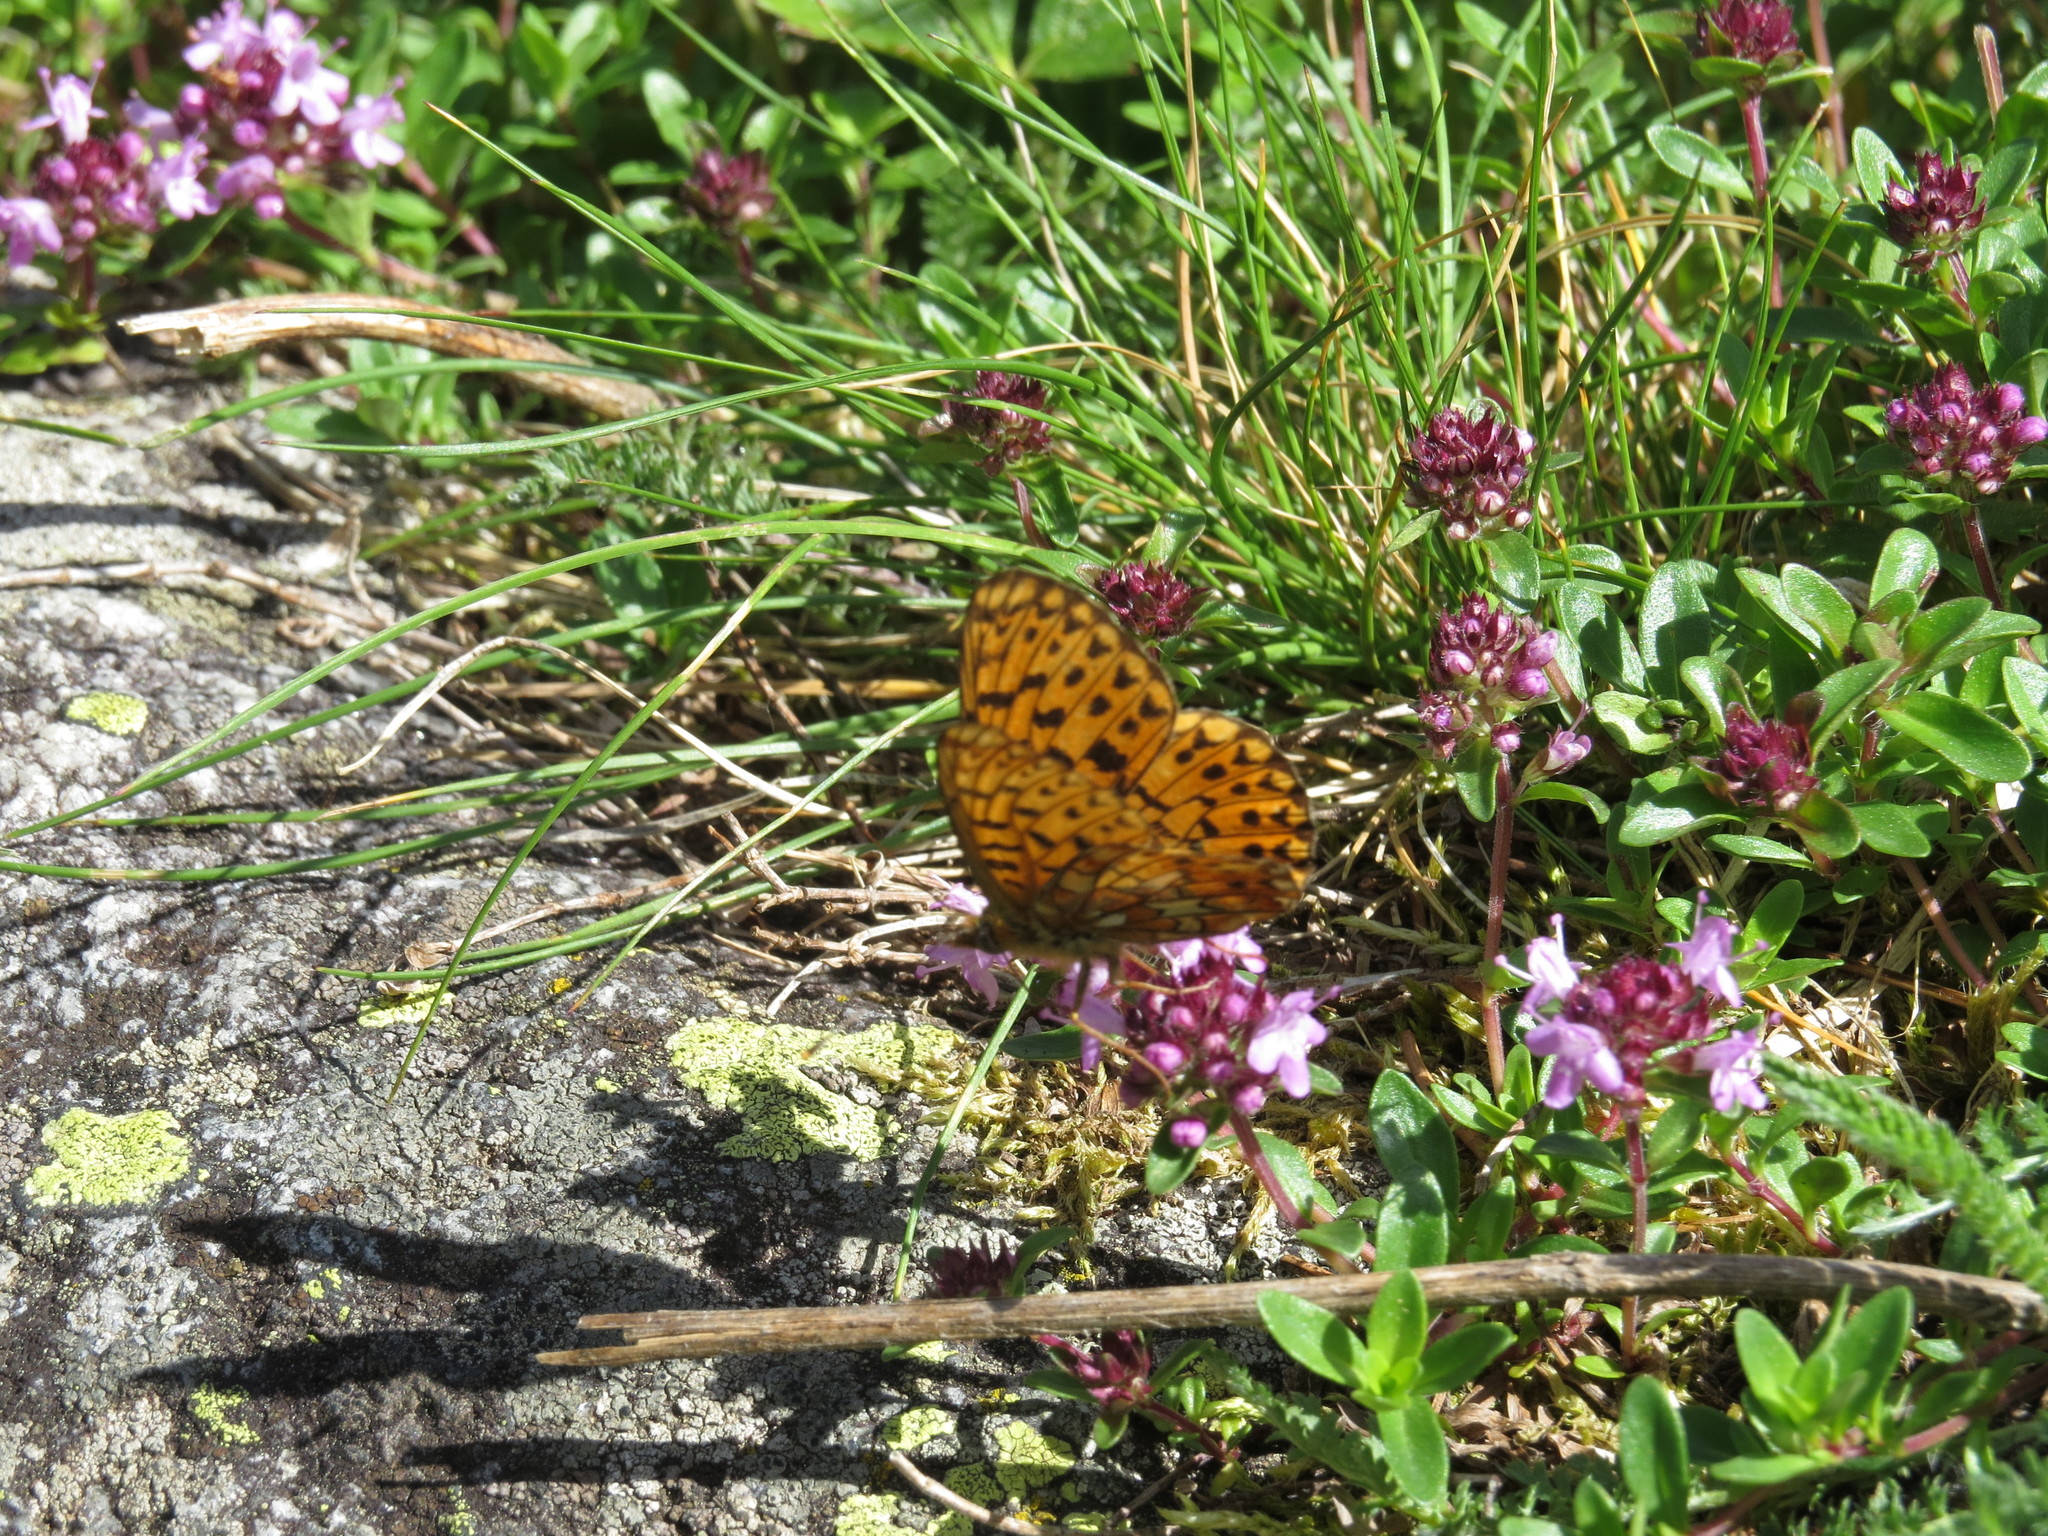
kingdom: Animalia
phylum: Arthropoda
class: Insecta
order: Lepidoptera
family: Nymphalidae
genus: Clossiana
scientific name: Clossiana euphrosyne
